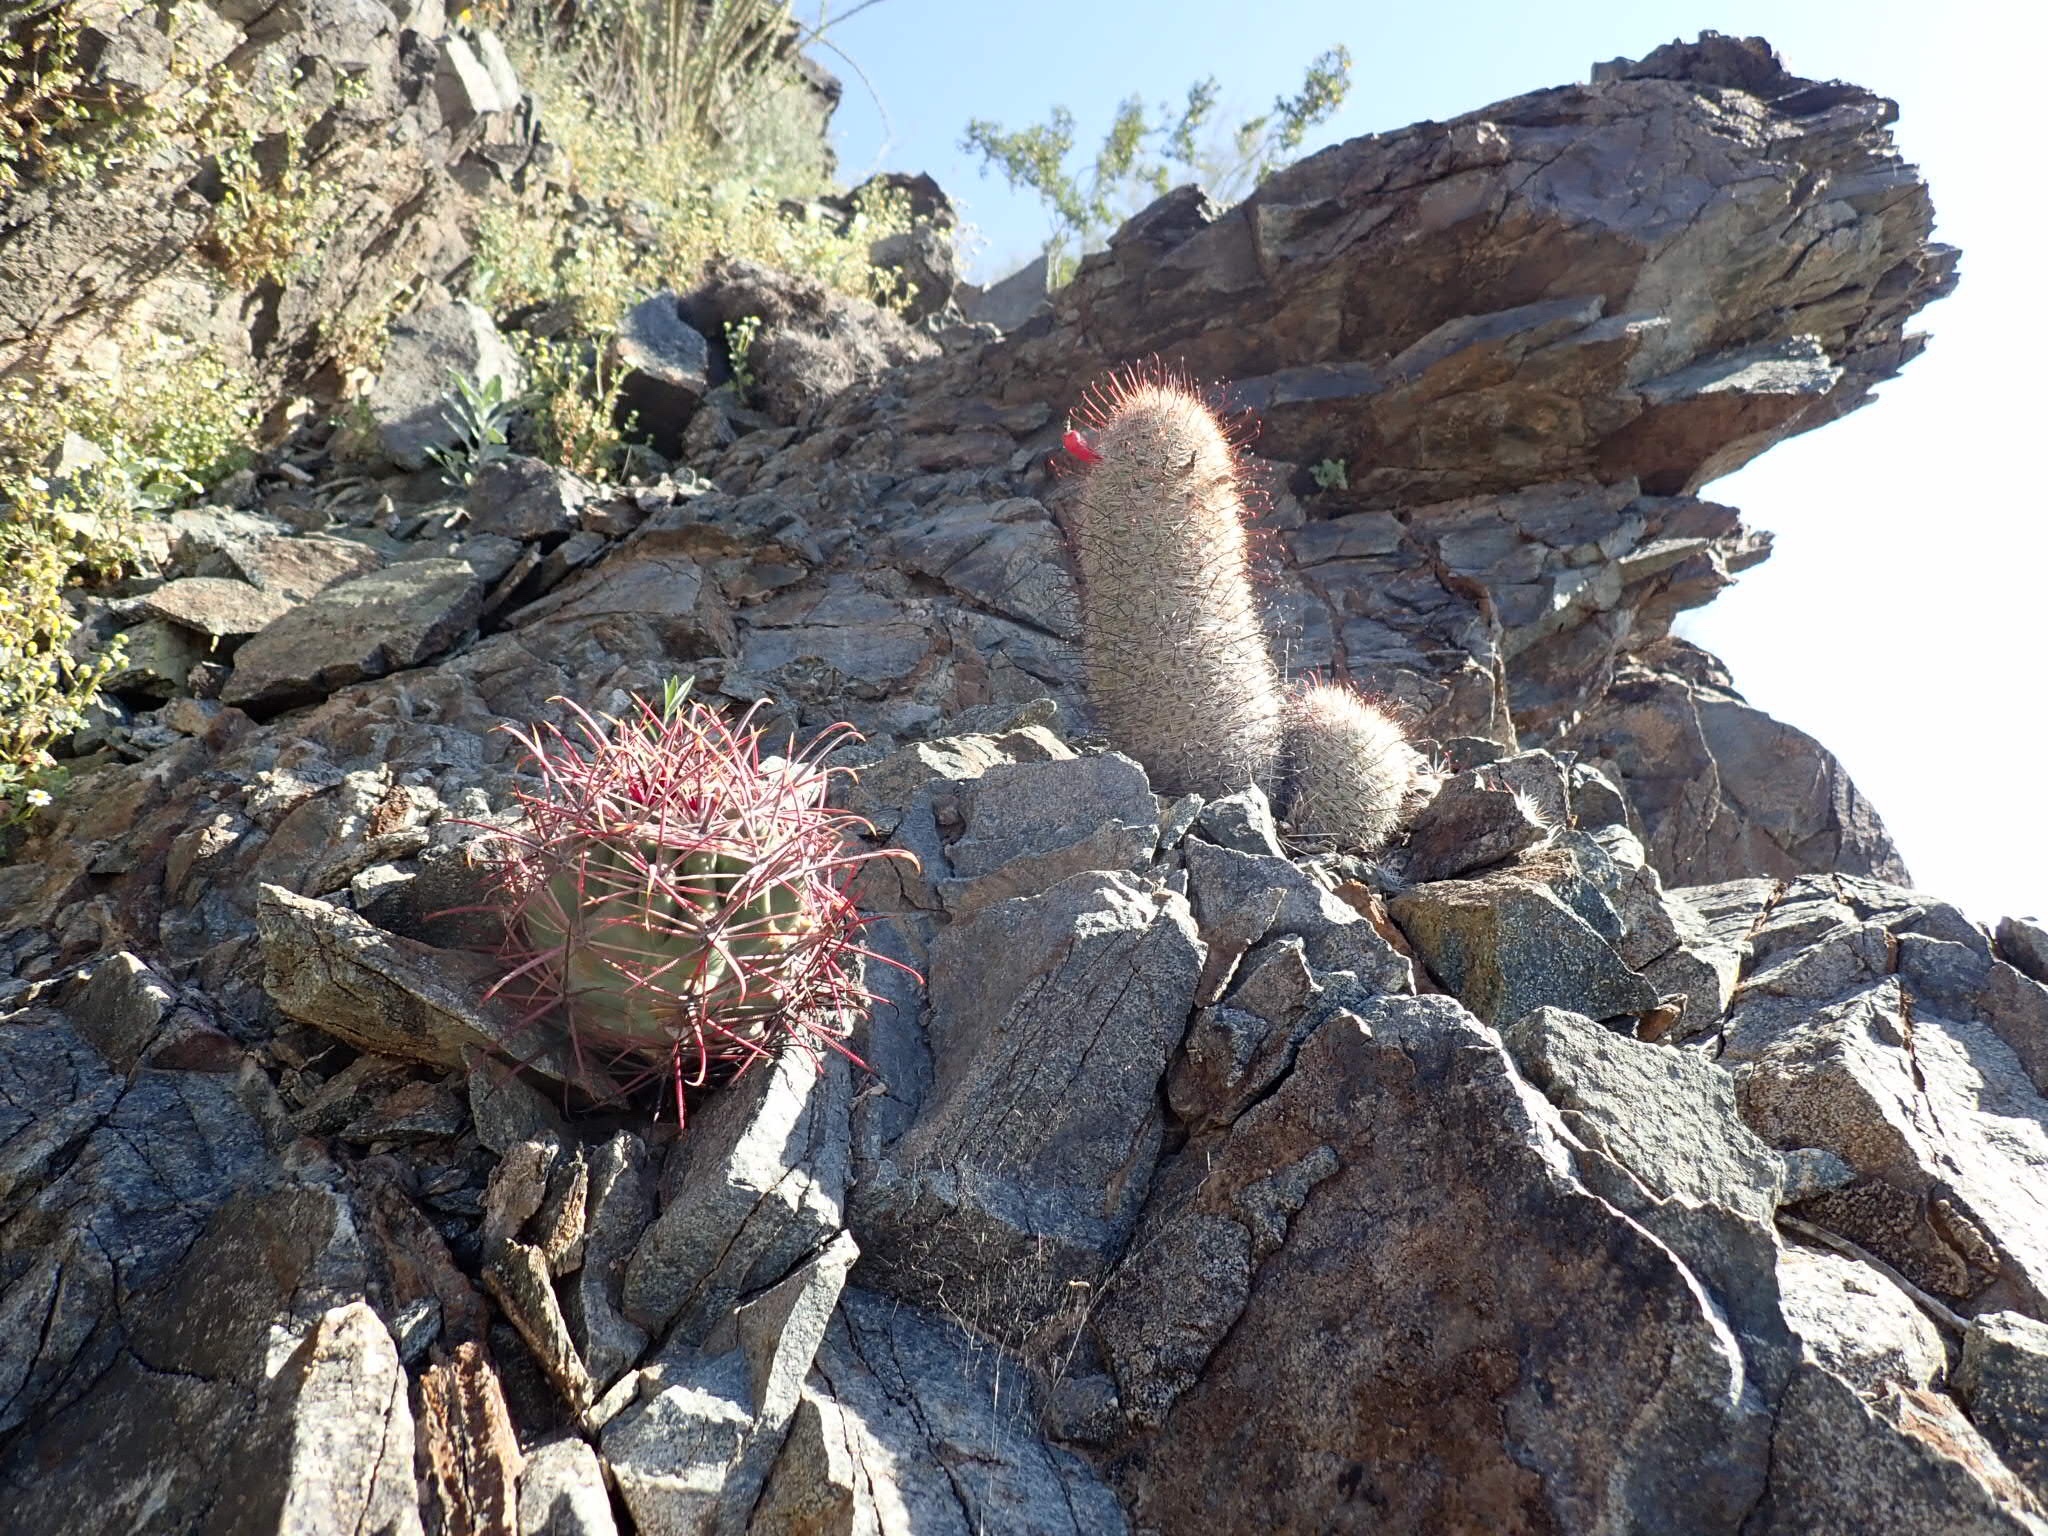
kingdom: Plantae
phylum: Tracheophyta
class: Magnoliopsida
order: Caryophyllales
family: Cactaceae
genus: Cochemiea
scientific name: Cochemiea grahamii
